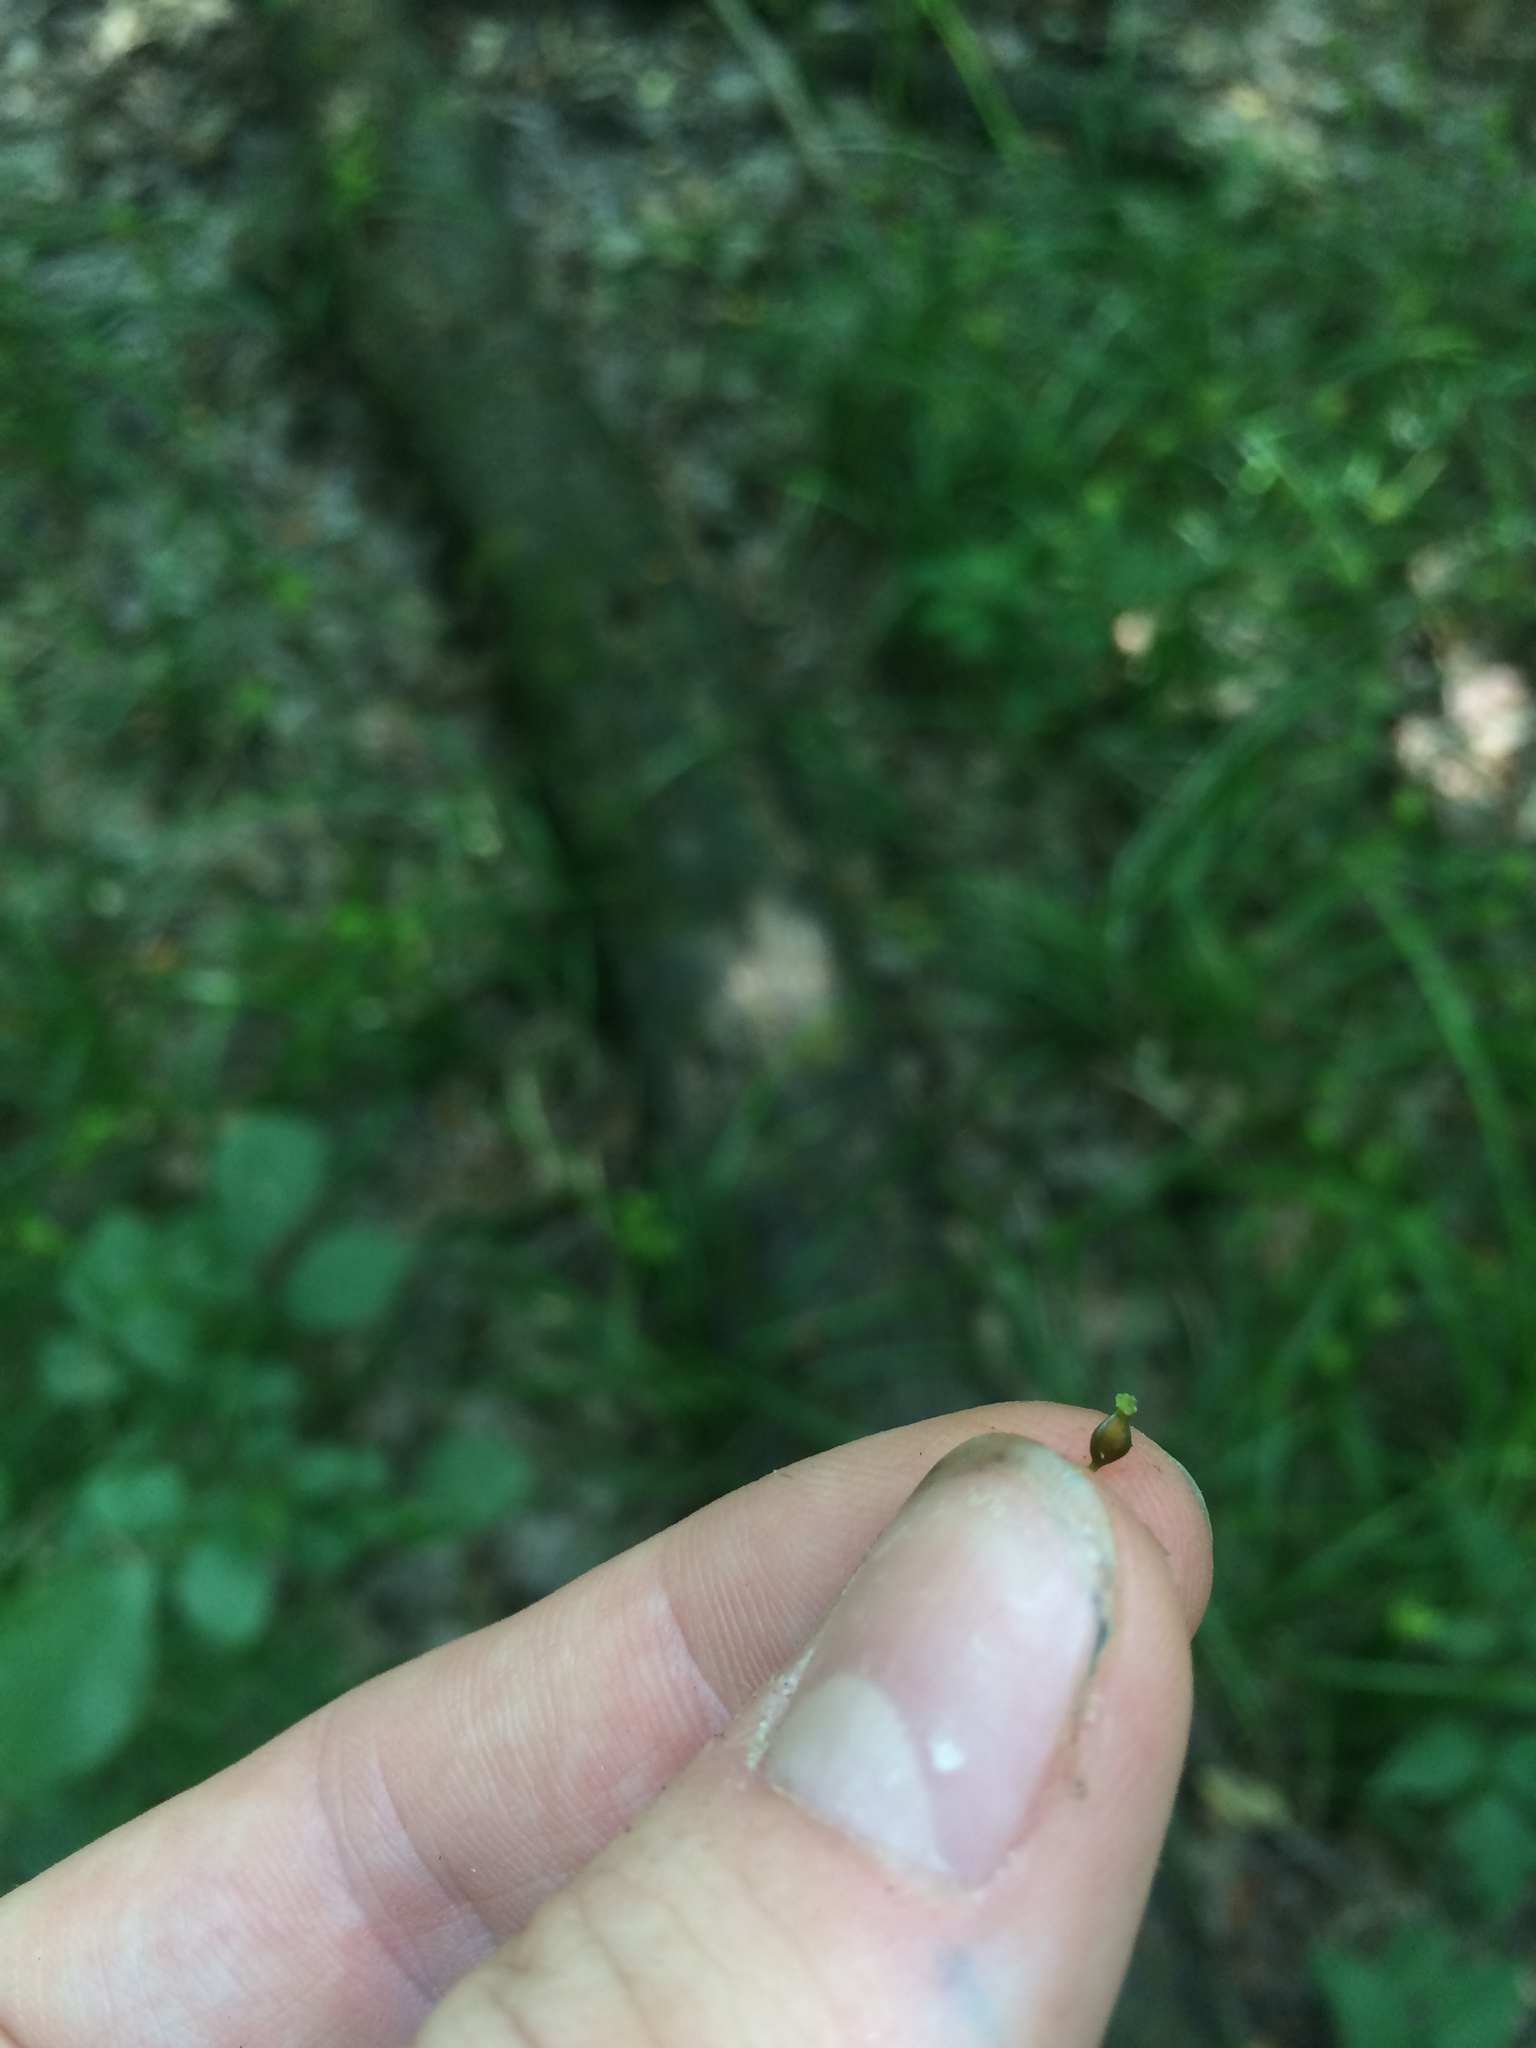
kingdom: Plantae
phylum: Tracheophyta
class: Liliopsida
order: Poales
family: Cyperaceae
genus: Carex
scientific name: Carex louisianica
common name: Louisiana sedge
